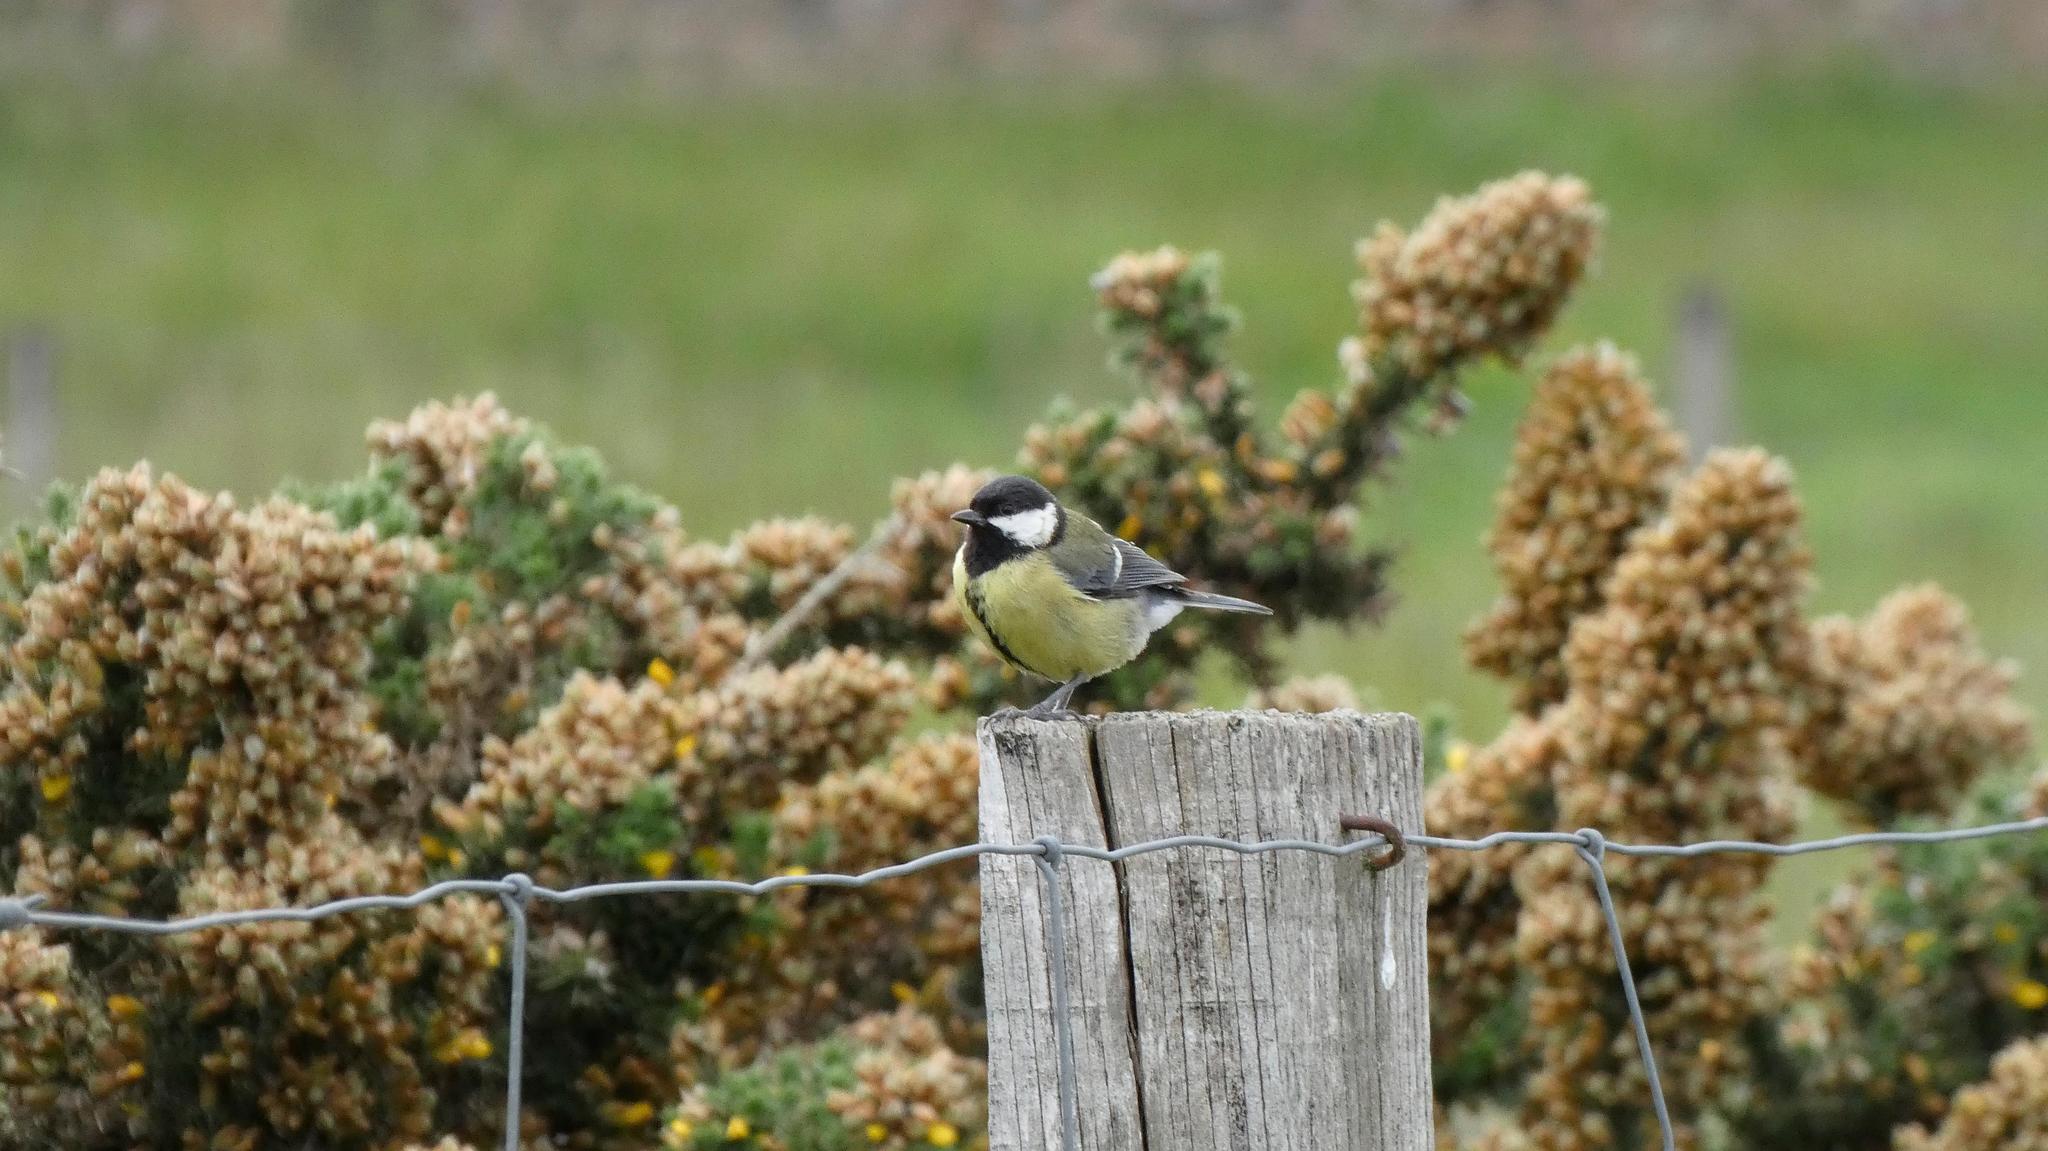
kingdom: Animalia
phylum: Chordata
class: Aves
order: Passeriformes
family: Paridae
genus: Parus
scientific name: Parus major
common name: Great tit
